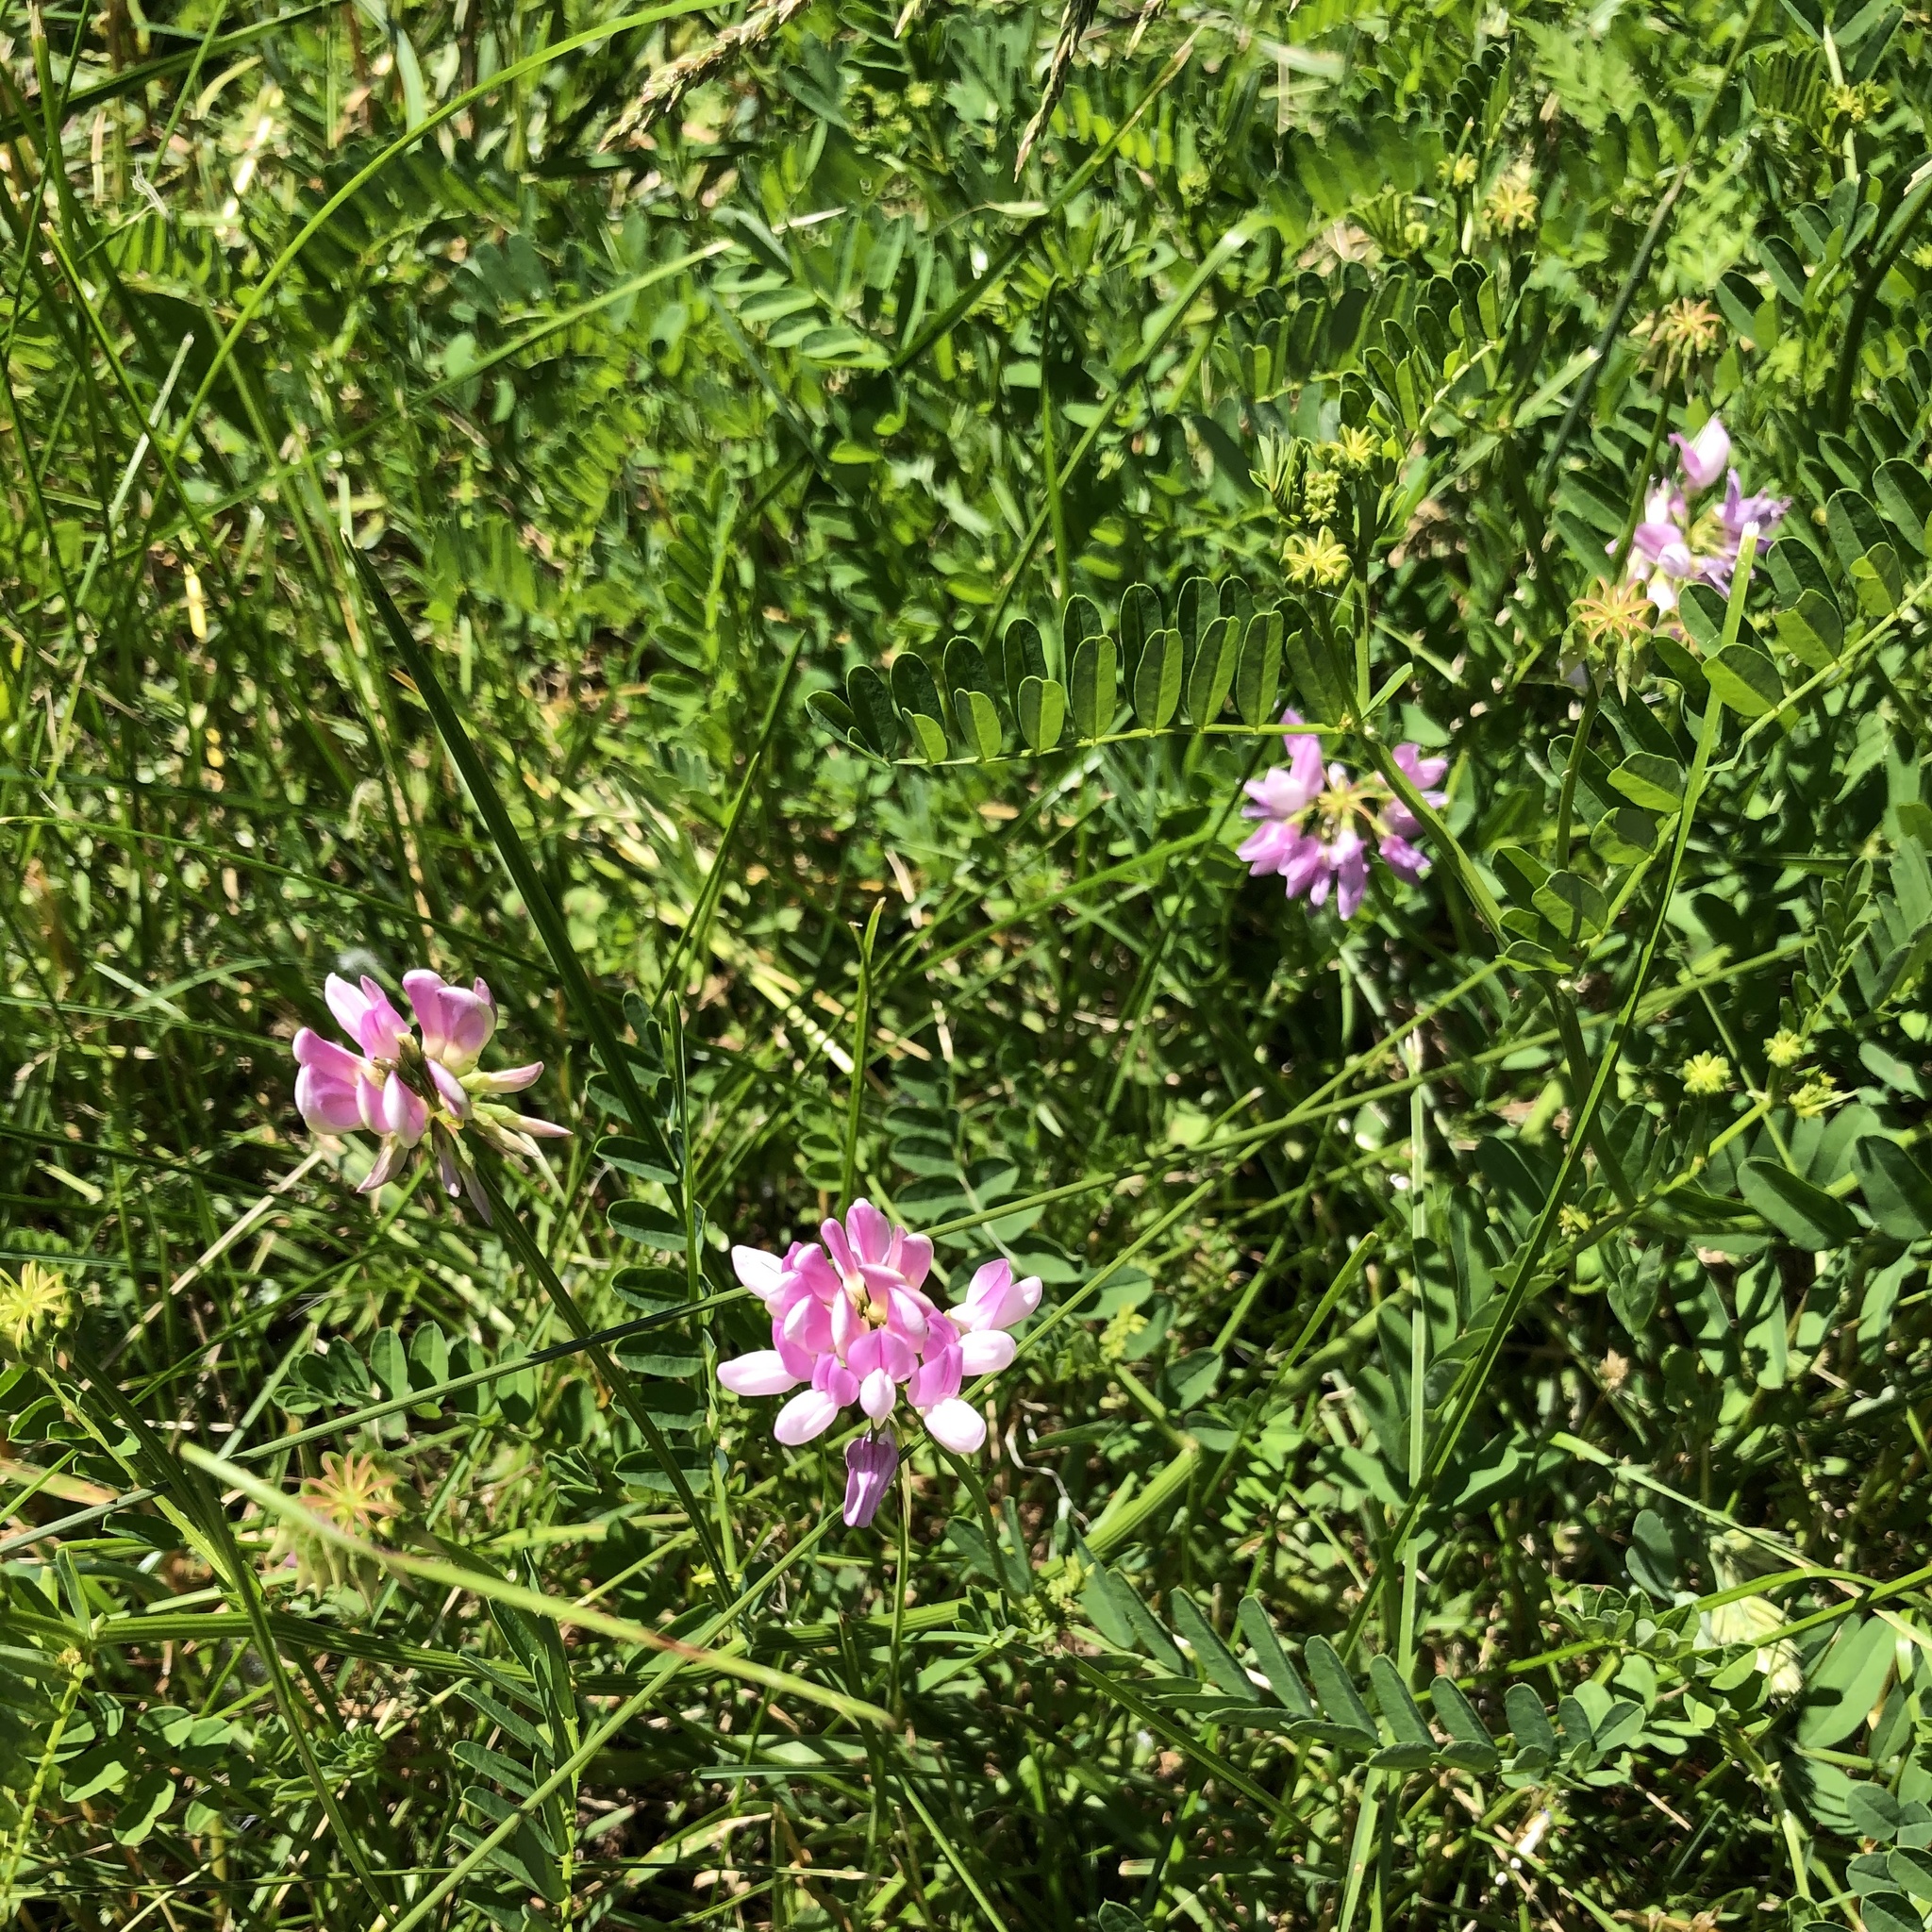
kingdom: Plantae
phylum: Tracheophyta
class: Magnoliopsida
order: Fabales
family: Fabaceae
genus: Coronilla
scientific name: Coronilla varia
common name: Crownvetch
